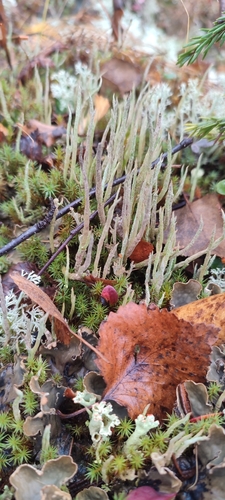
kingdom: Fungi
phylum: Ascomycota
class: Lecanoromycetes
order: Lecanorales
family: Cladoniaceae
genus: Cladonia
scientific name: Cladonia cornuta
